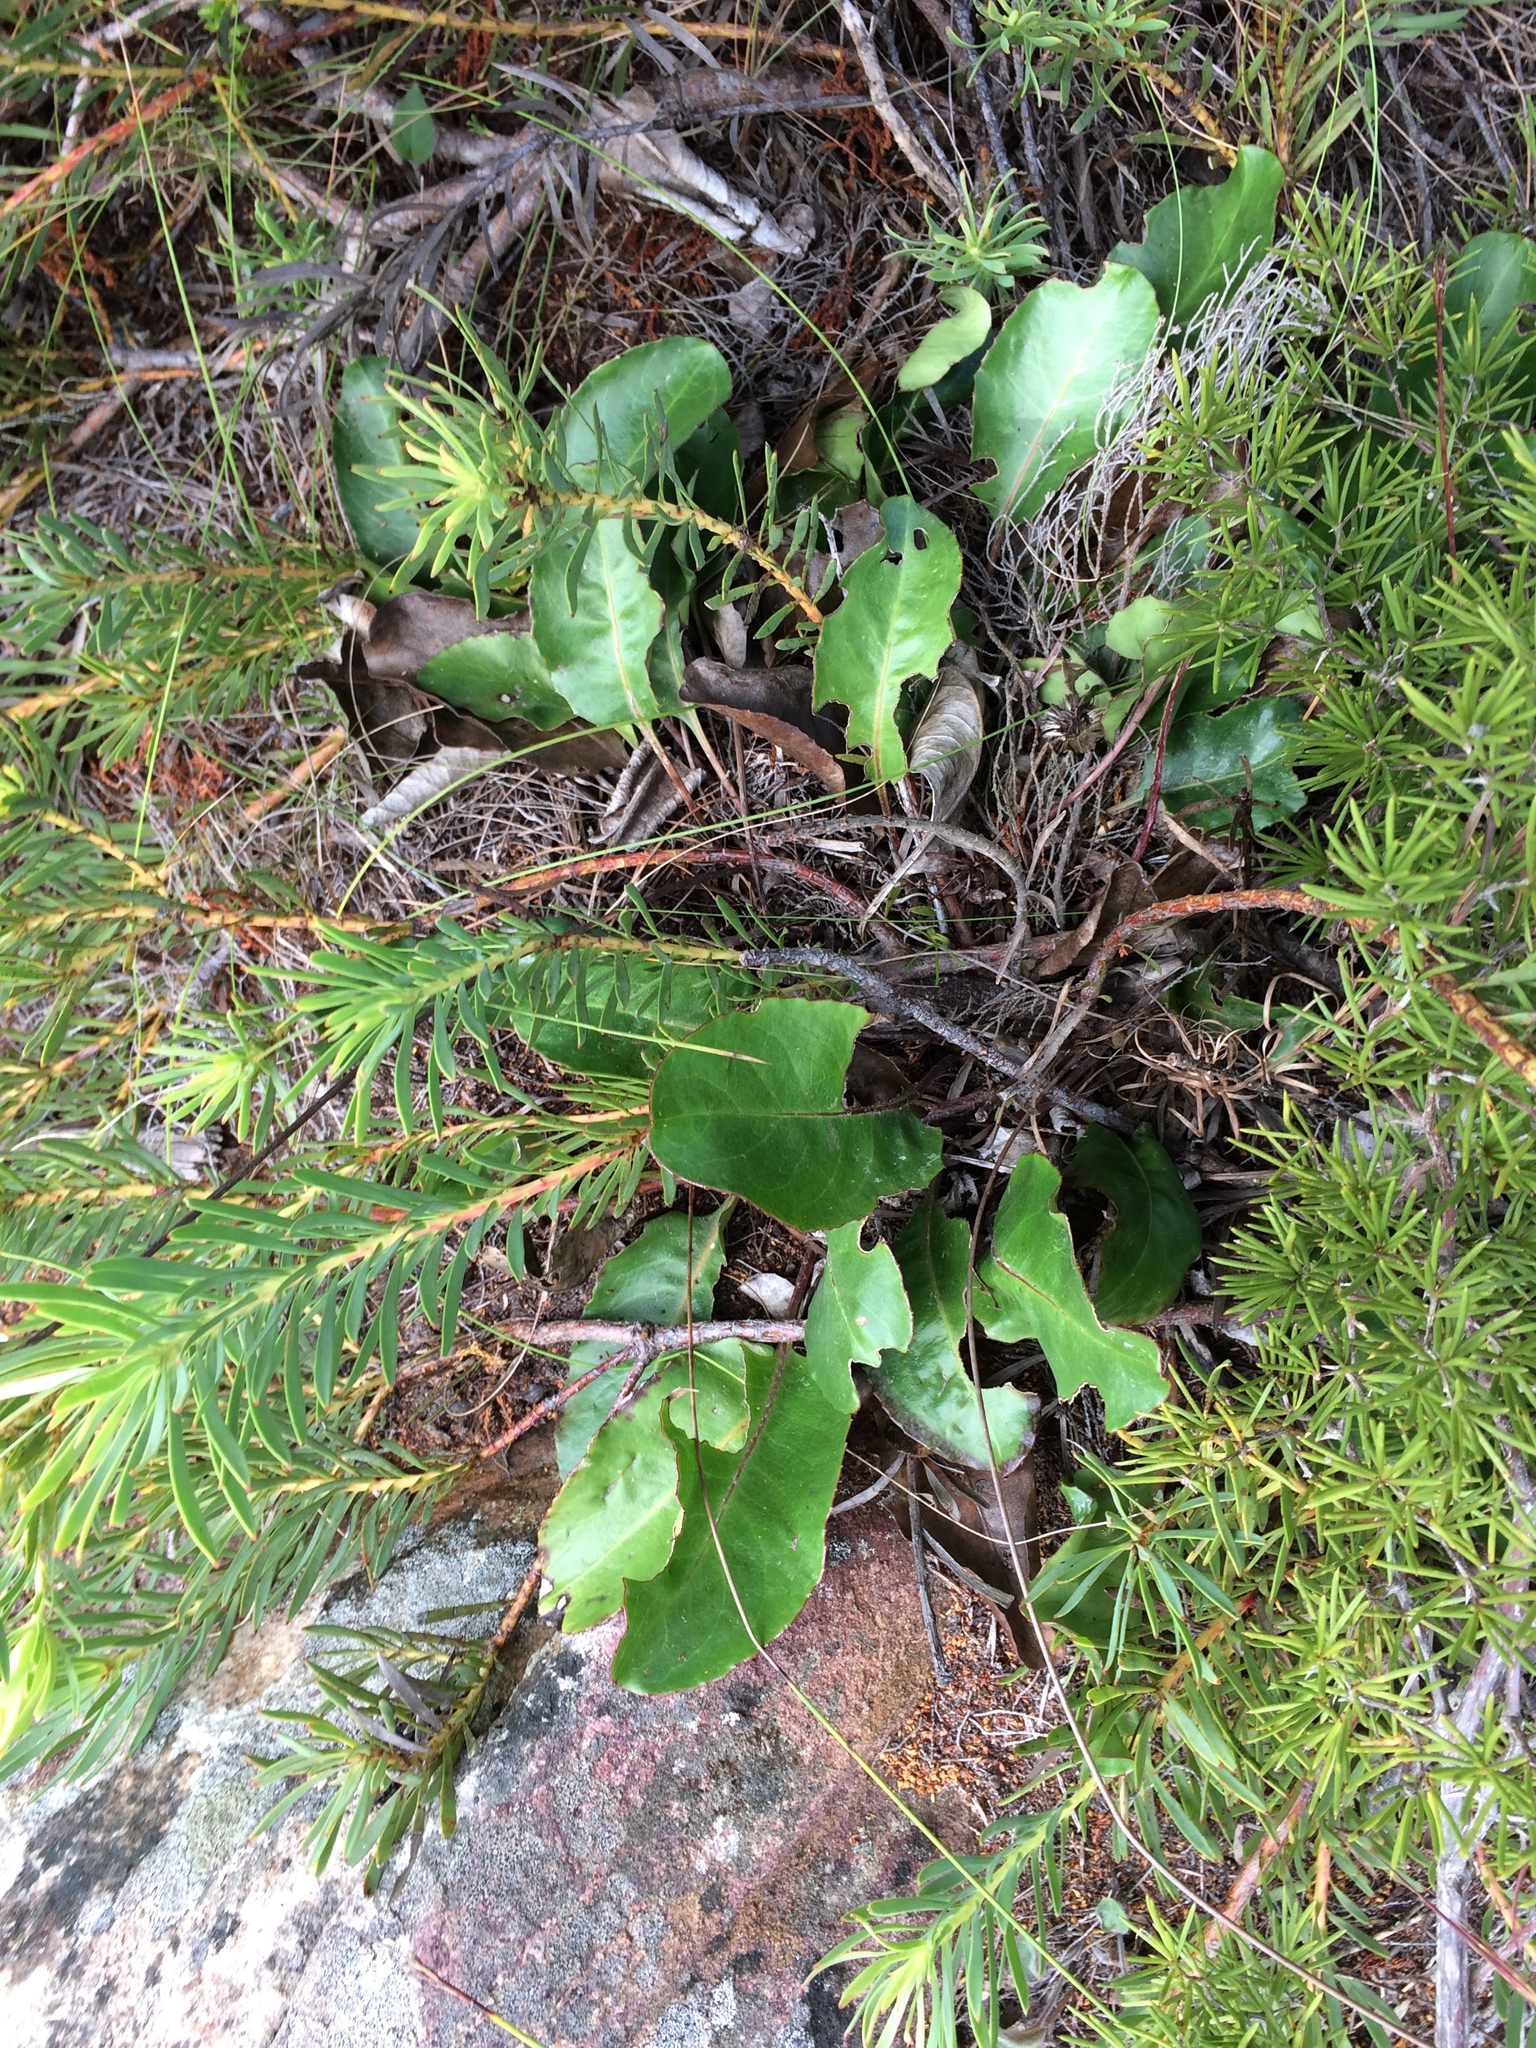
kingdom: Plantae
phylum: Tracheophyta
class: Magnoliopsida
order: Proteales
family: Proteaceae
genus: Leucadendron
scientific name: Leucadendron salignum
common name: Common sunshine conebush
